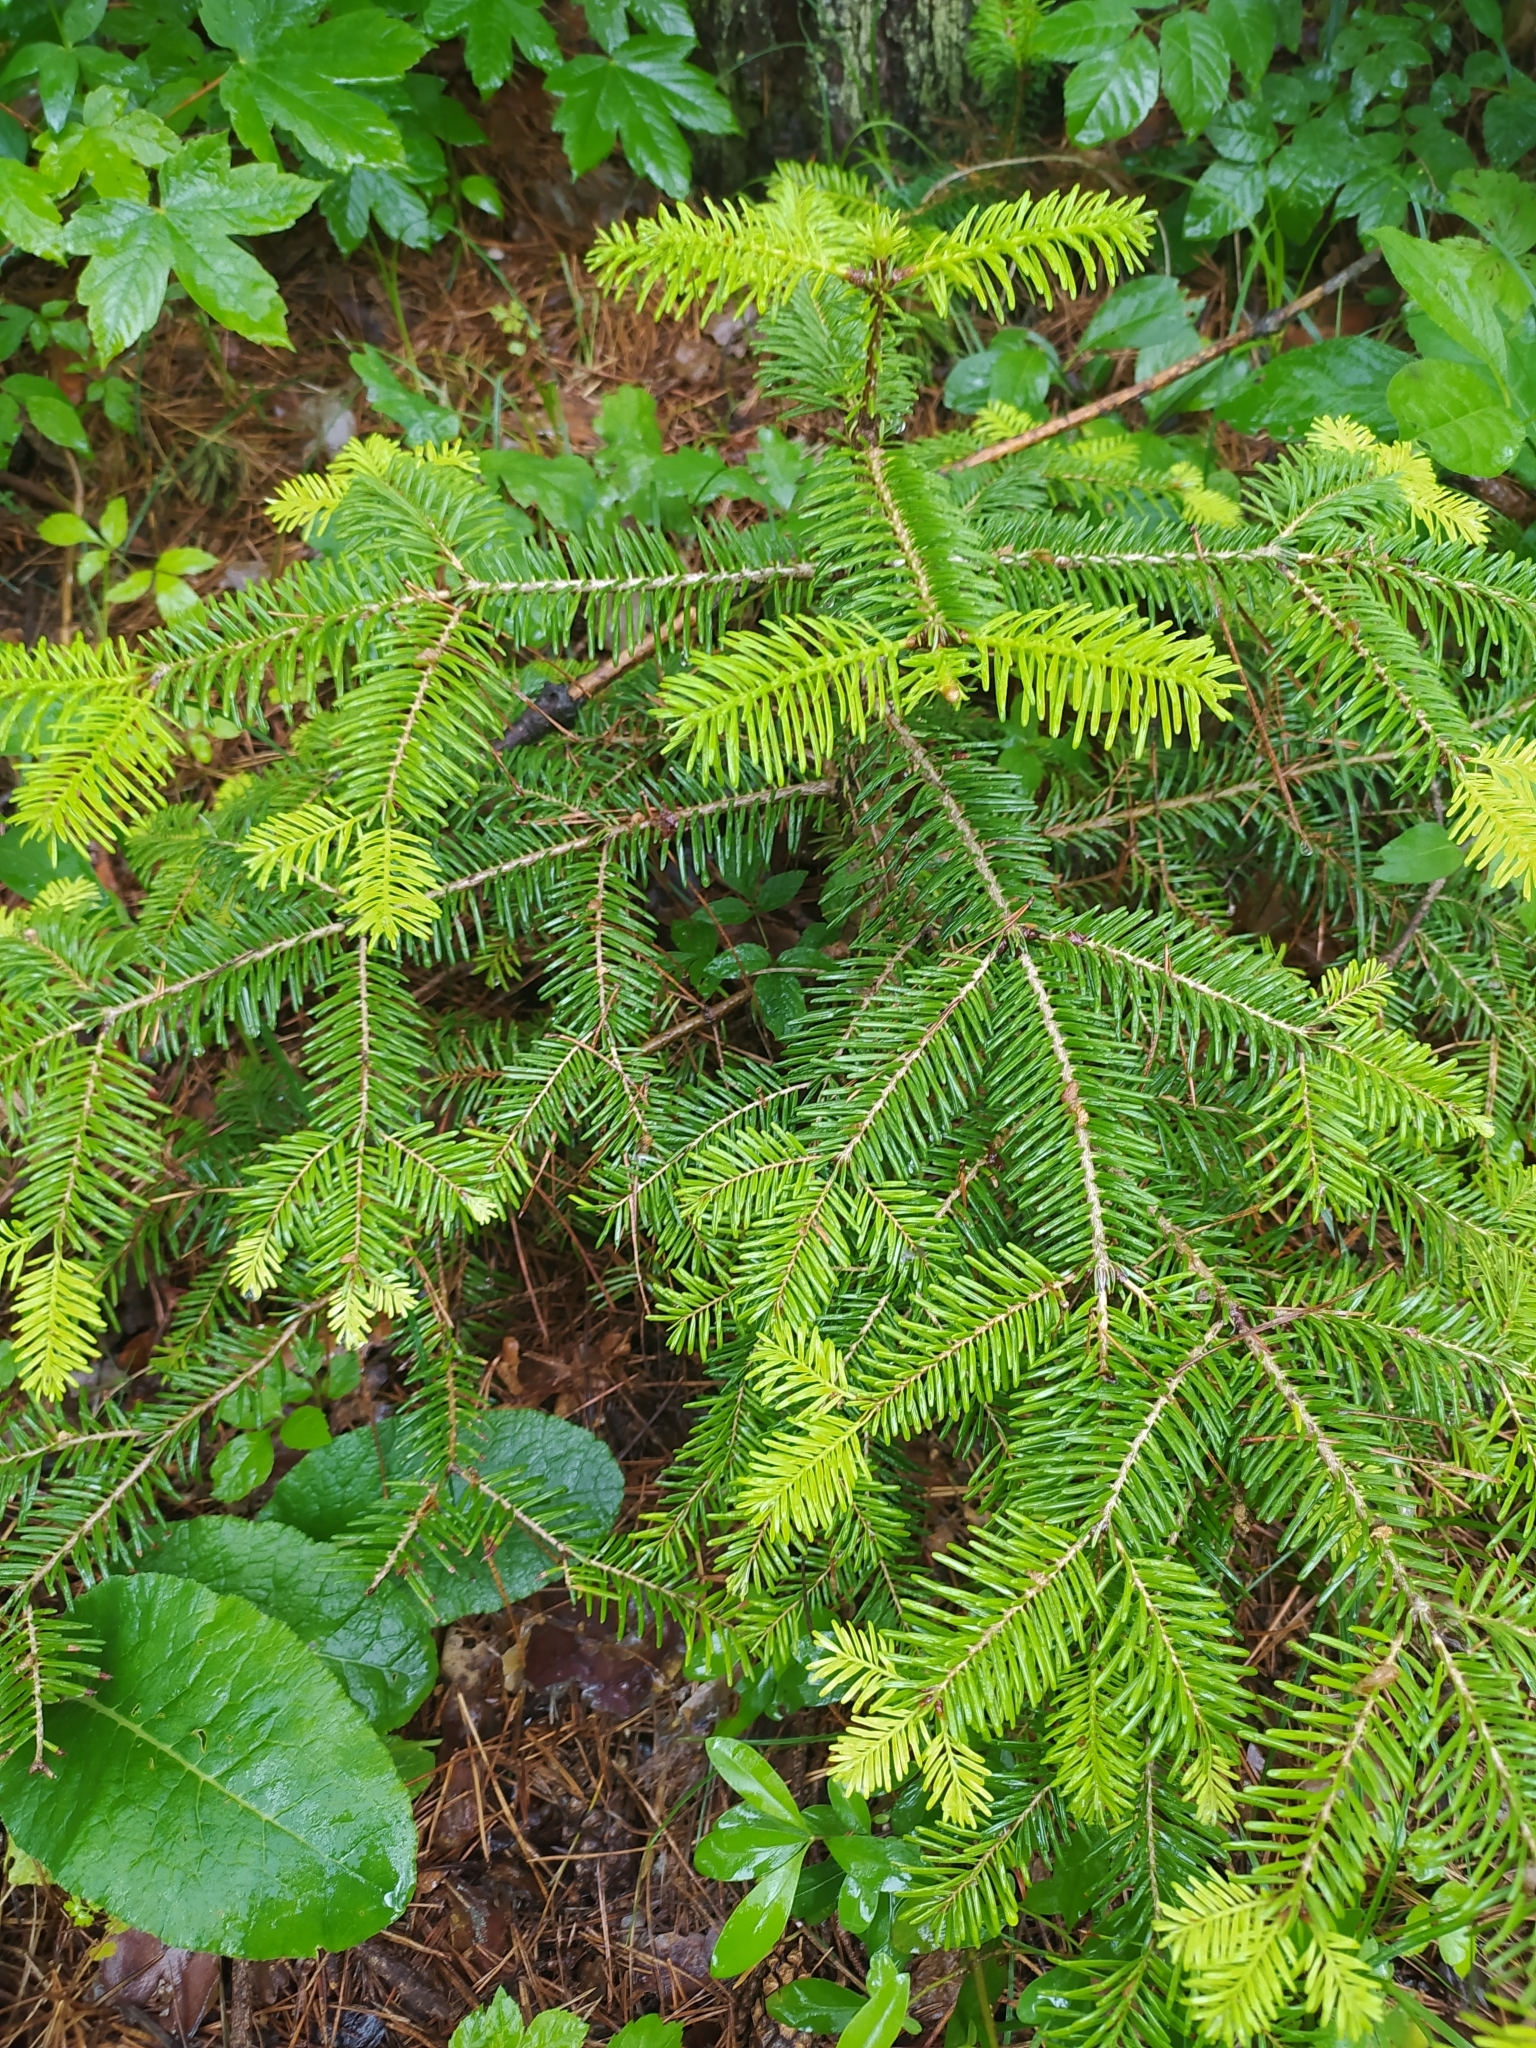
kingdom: Plantae
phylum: Tracheophyta
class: Pinopsida
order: Pinales
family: Pinaceae
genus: Abies
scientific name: Abies nordmanniana
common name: Caucasian fir
